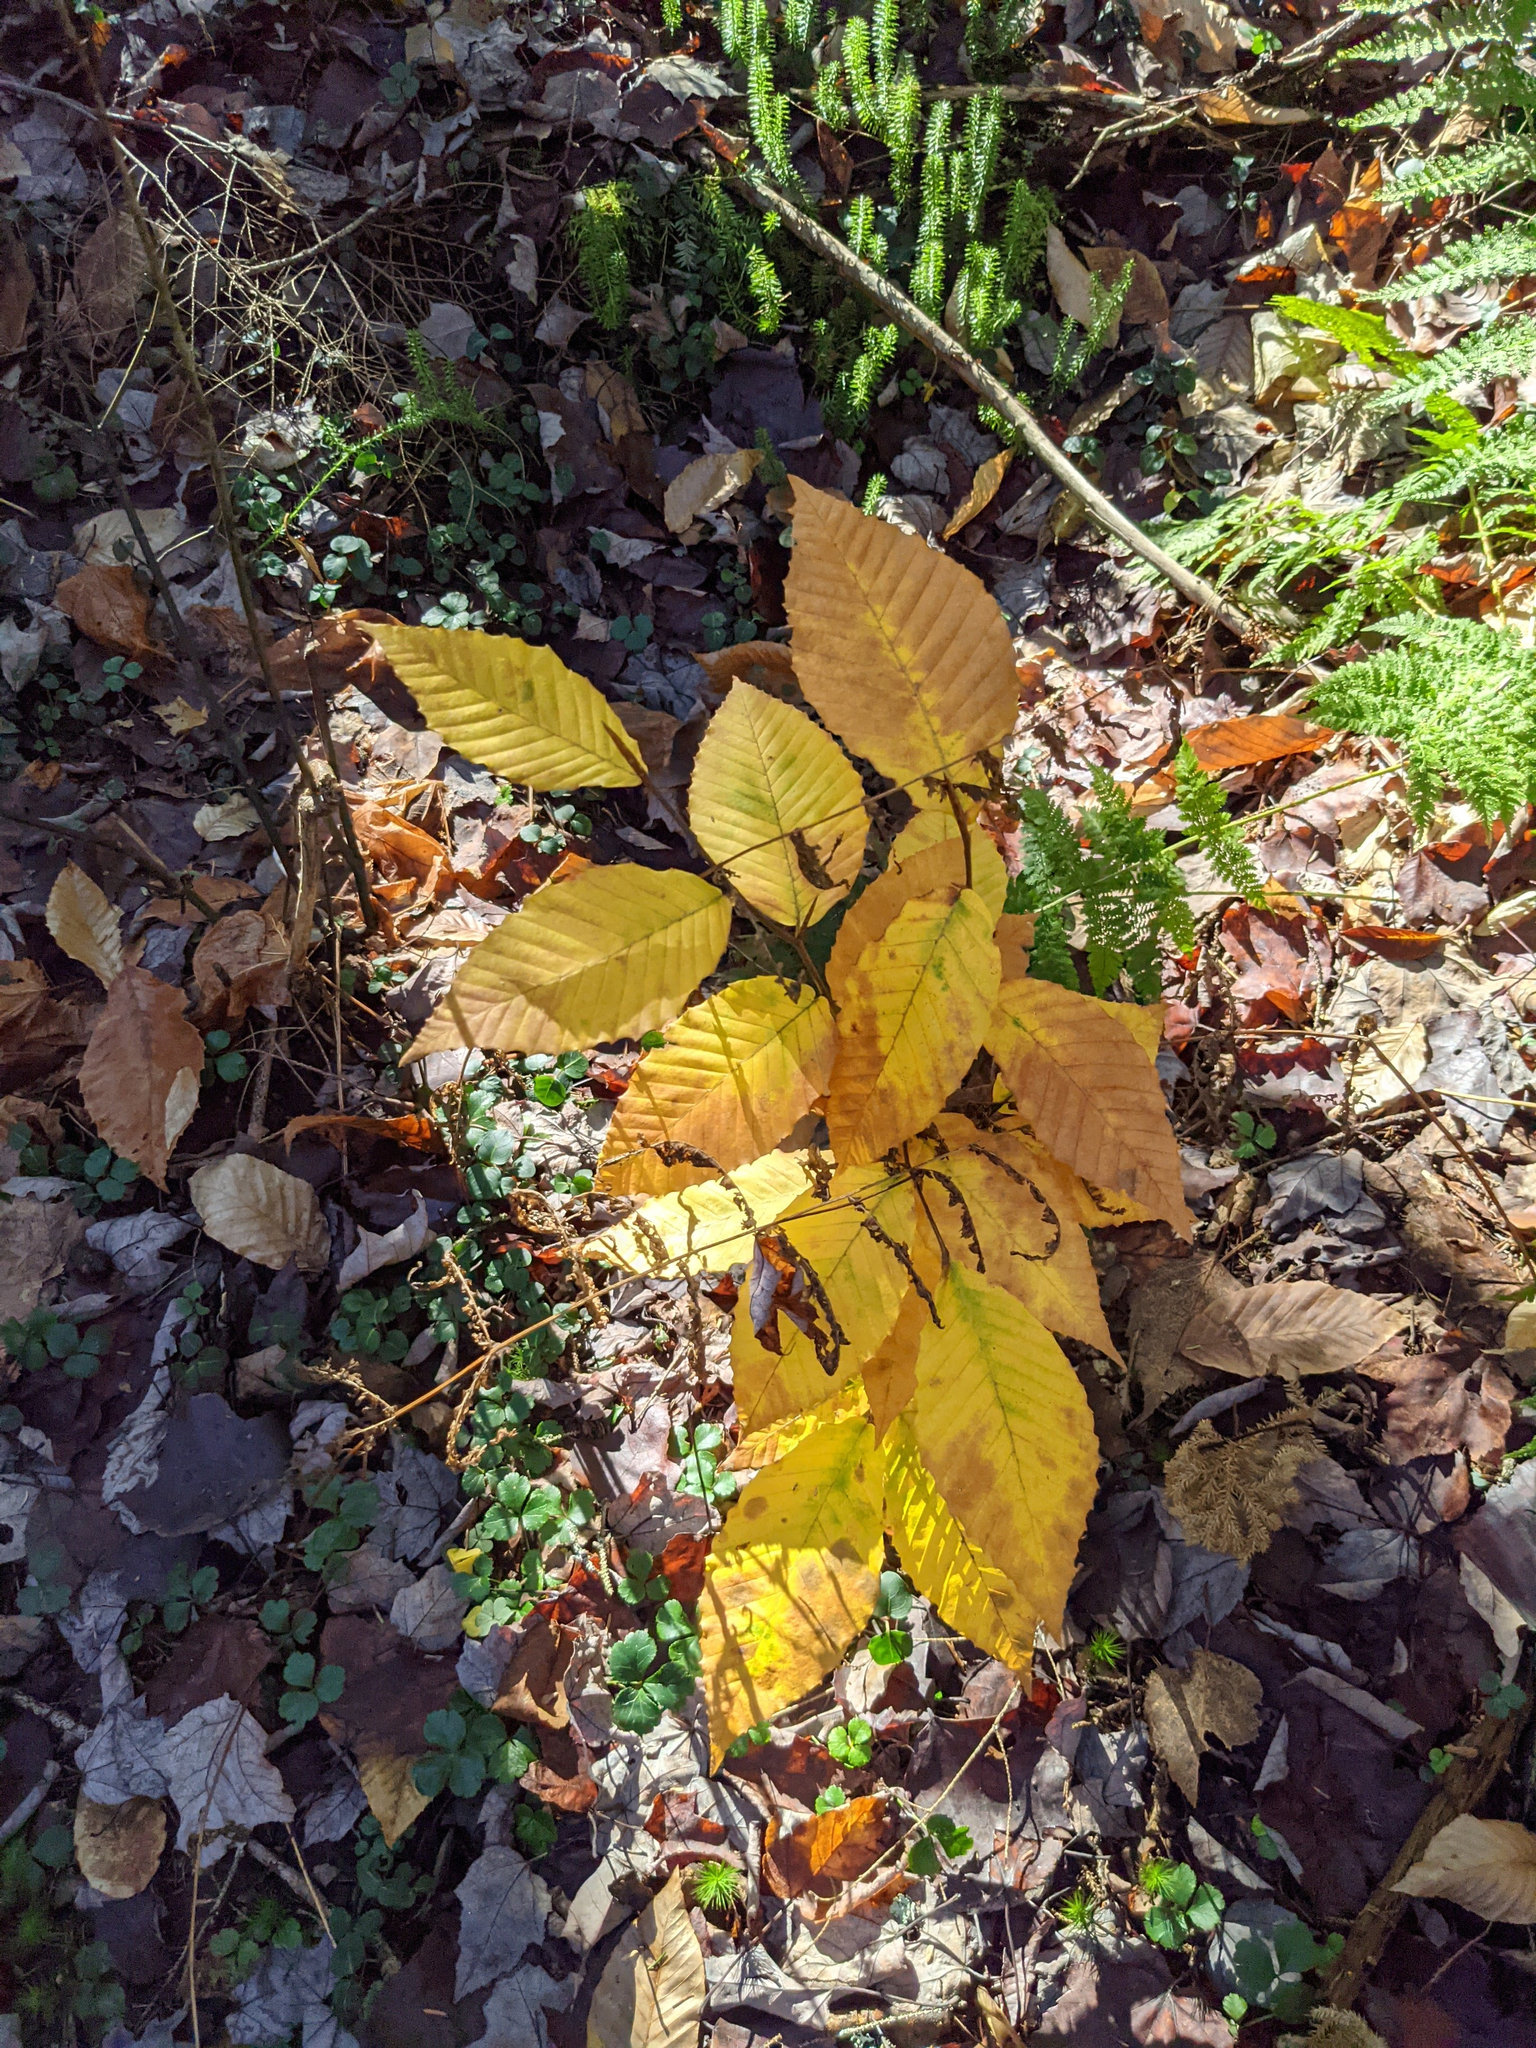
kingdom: Plantae
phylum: Tracheophyta
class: Magnoliopsida
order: Fagales
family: Fagaceae
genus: Fagus
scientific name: Fagus grandifolia
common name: American beech
